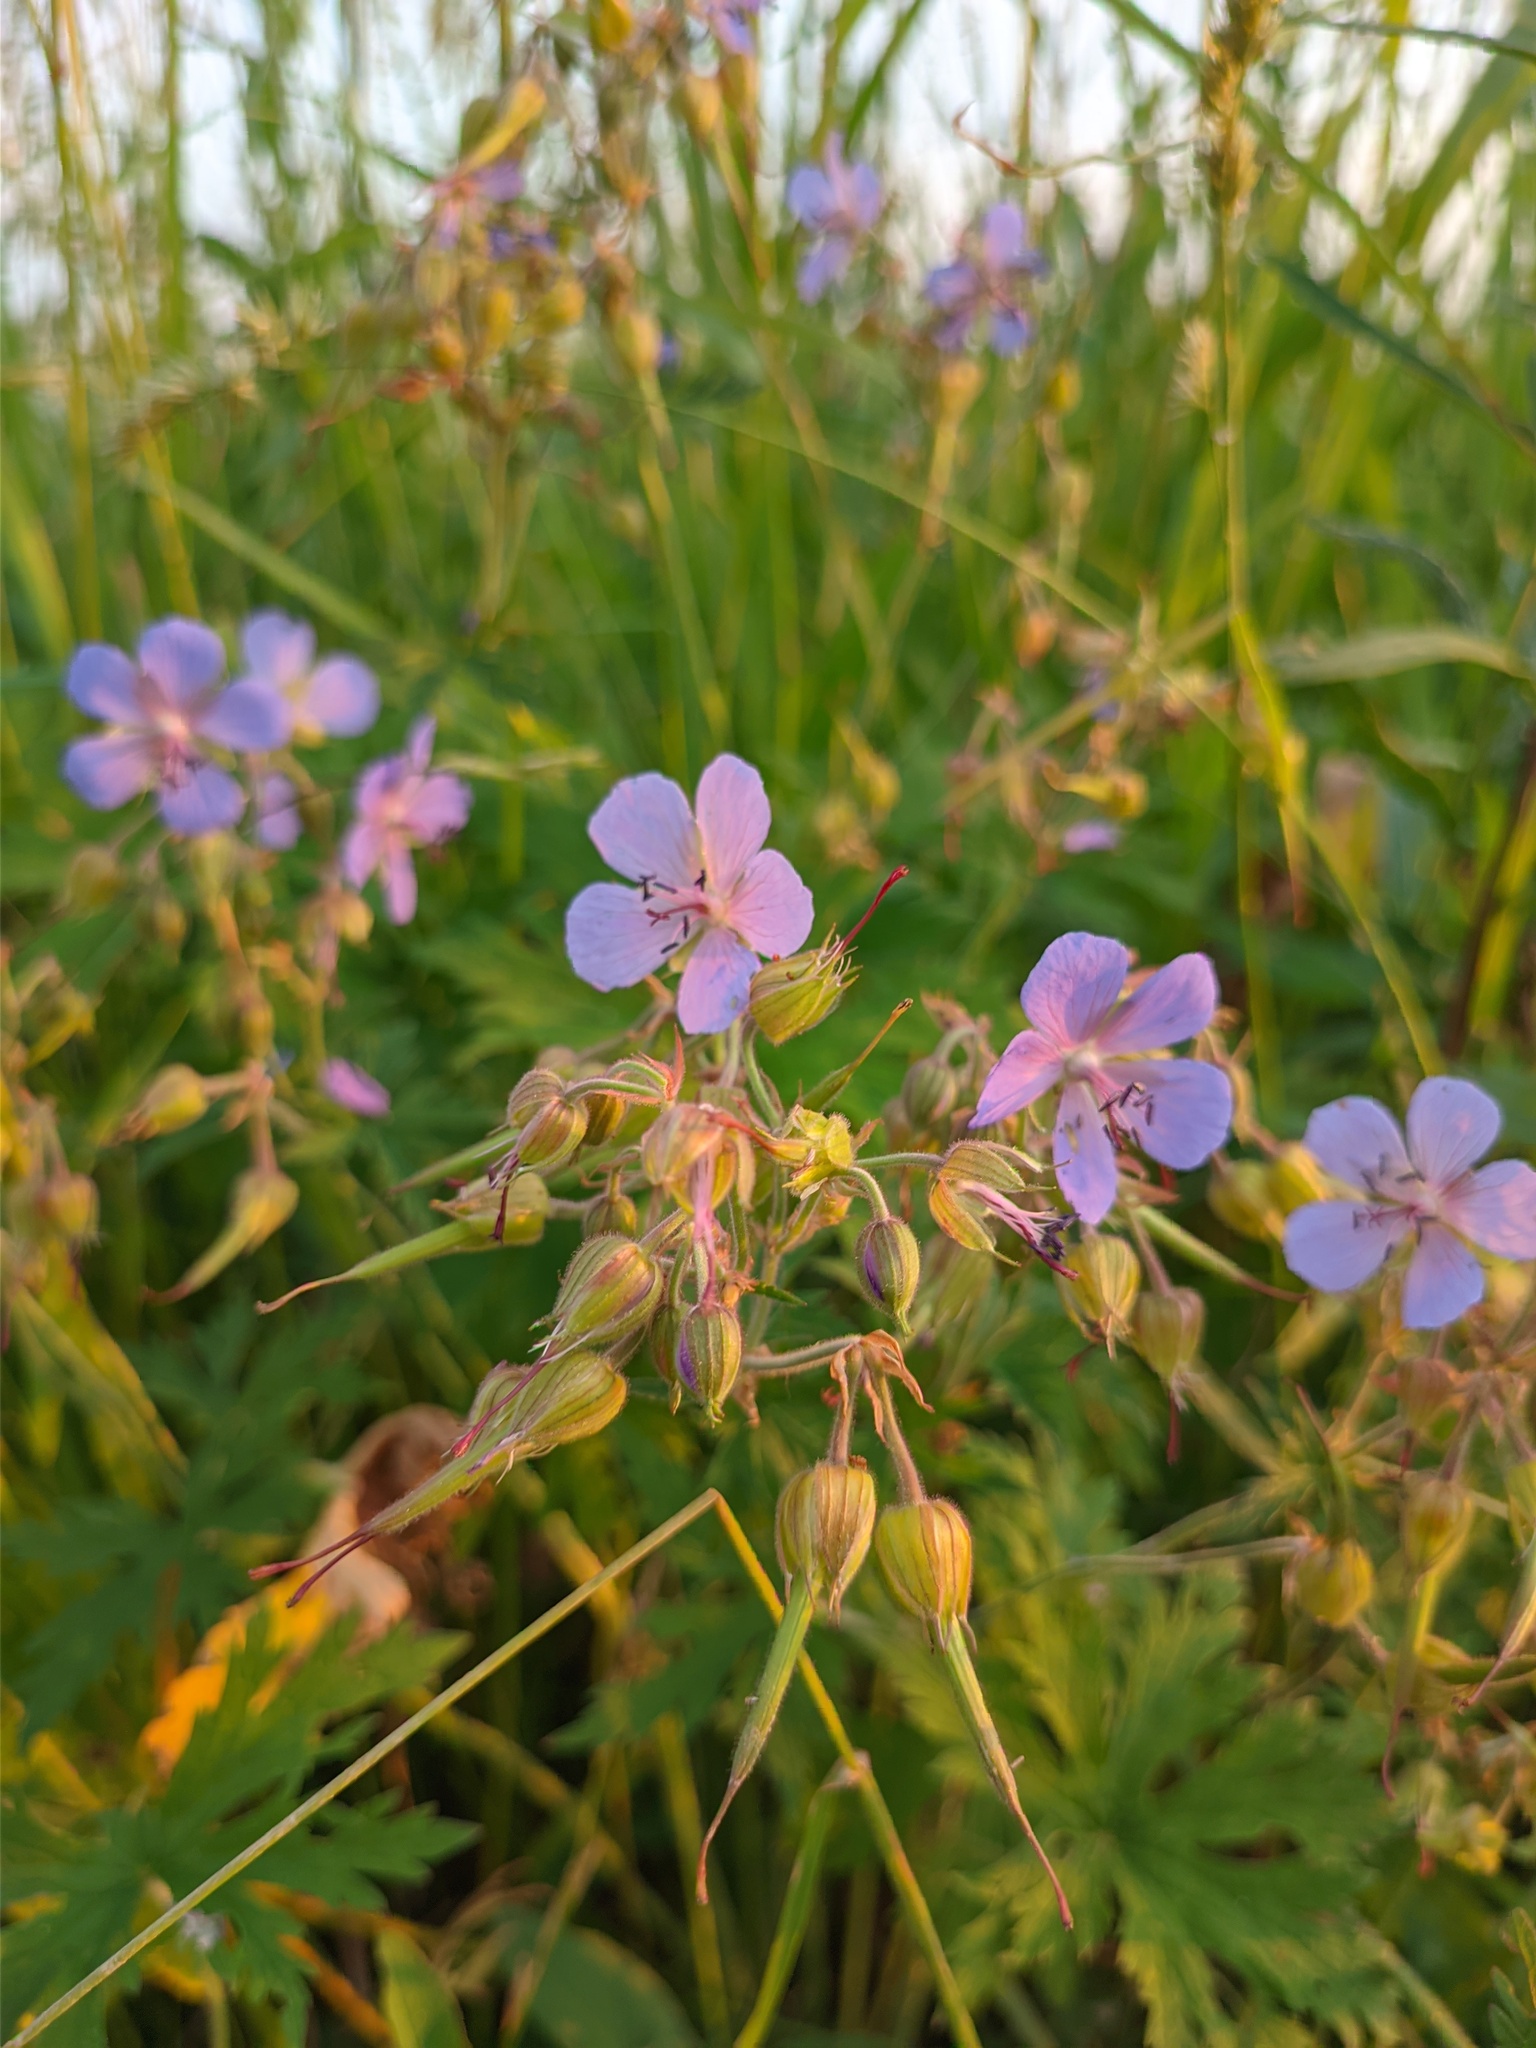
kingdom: Plantae
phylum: Tracheophyta
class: Magnoliopsida
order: Geraniales
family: Geraniaceae
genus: Geranium
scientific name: Geranium pratense
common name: Meadow crane's-bill
